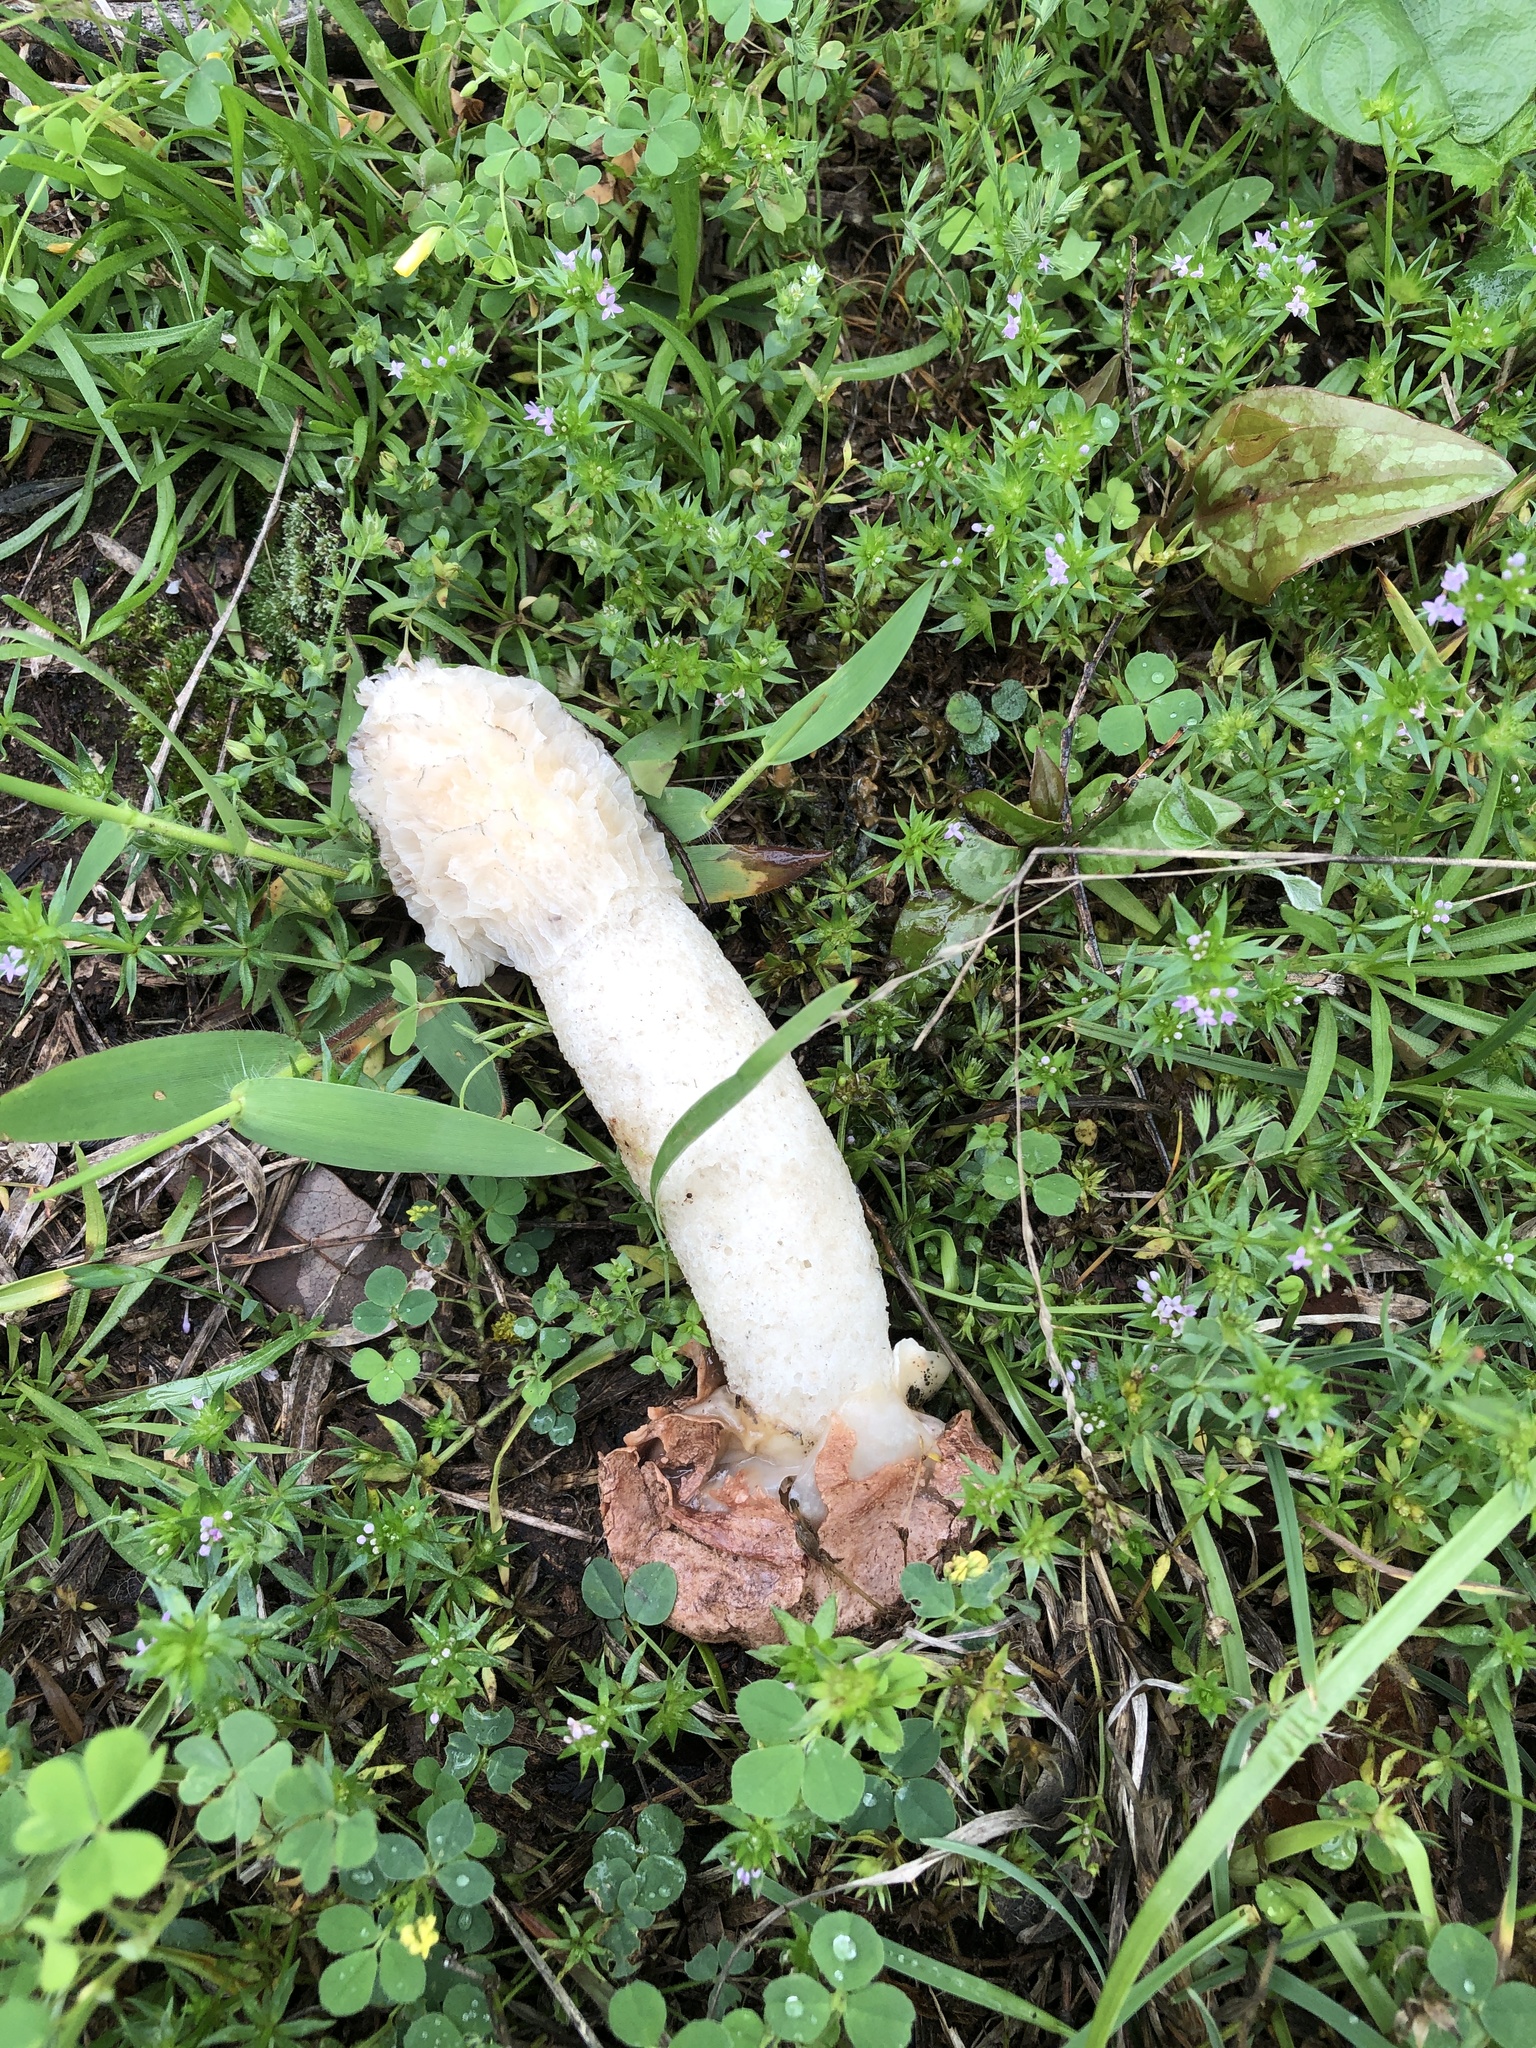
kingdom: Fungi
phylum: Basidiomycota
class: Agaricomycetes
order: Phallales
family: Phallaceae
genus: Phallus
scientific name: Phallus hadriani
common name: Sand stinkhorn
